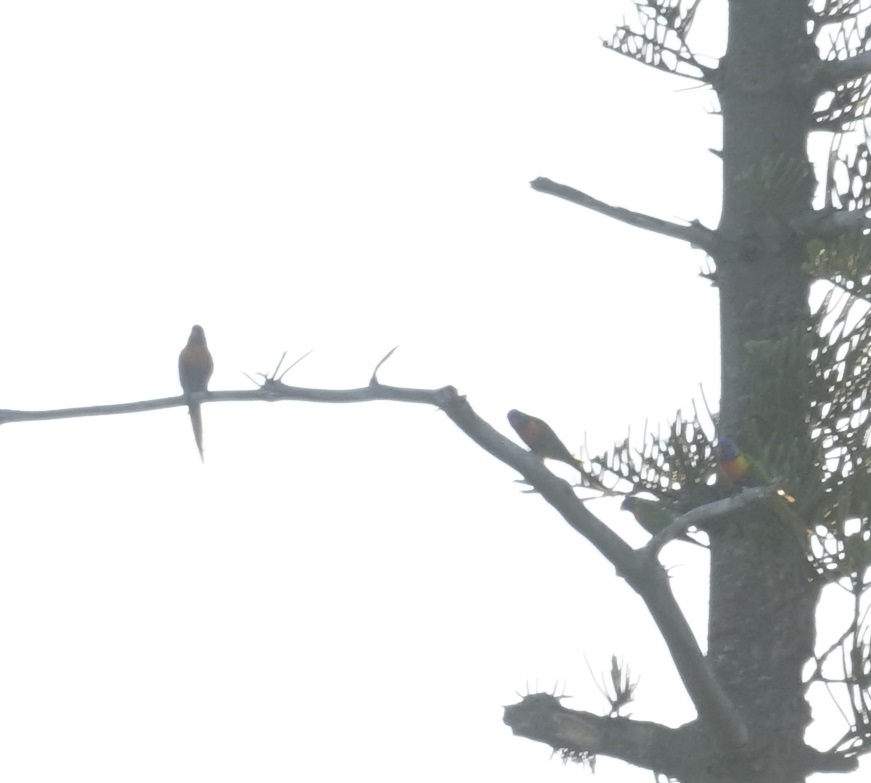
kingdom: Animalia
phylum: Chordata
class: Aves
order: Psittaciformes
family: Psittacidae
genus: Trichoglossus
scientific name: Trichoglossus haematodus
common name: Coconut lorikeet
